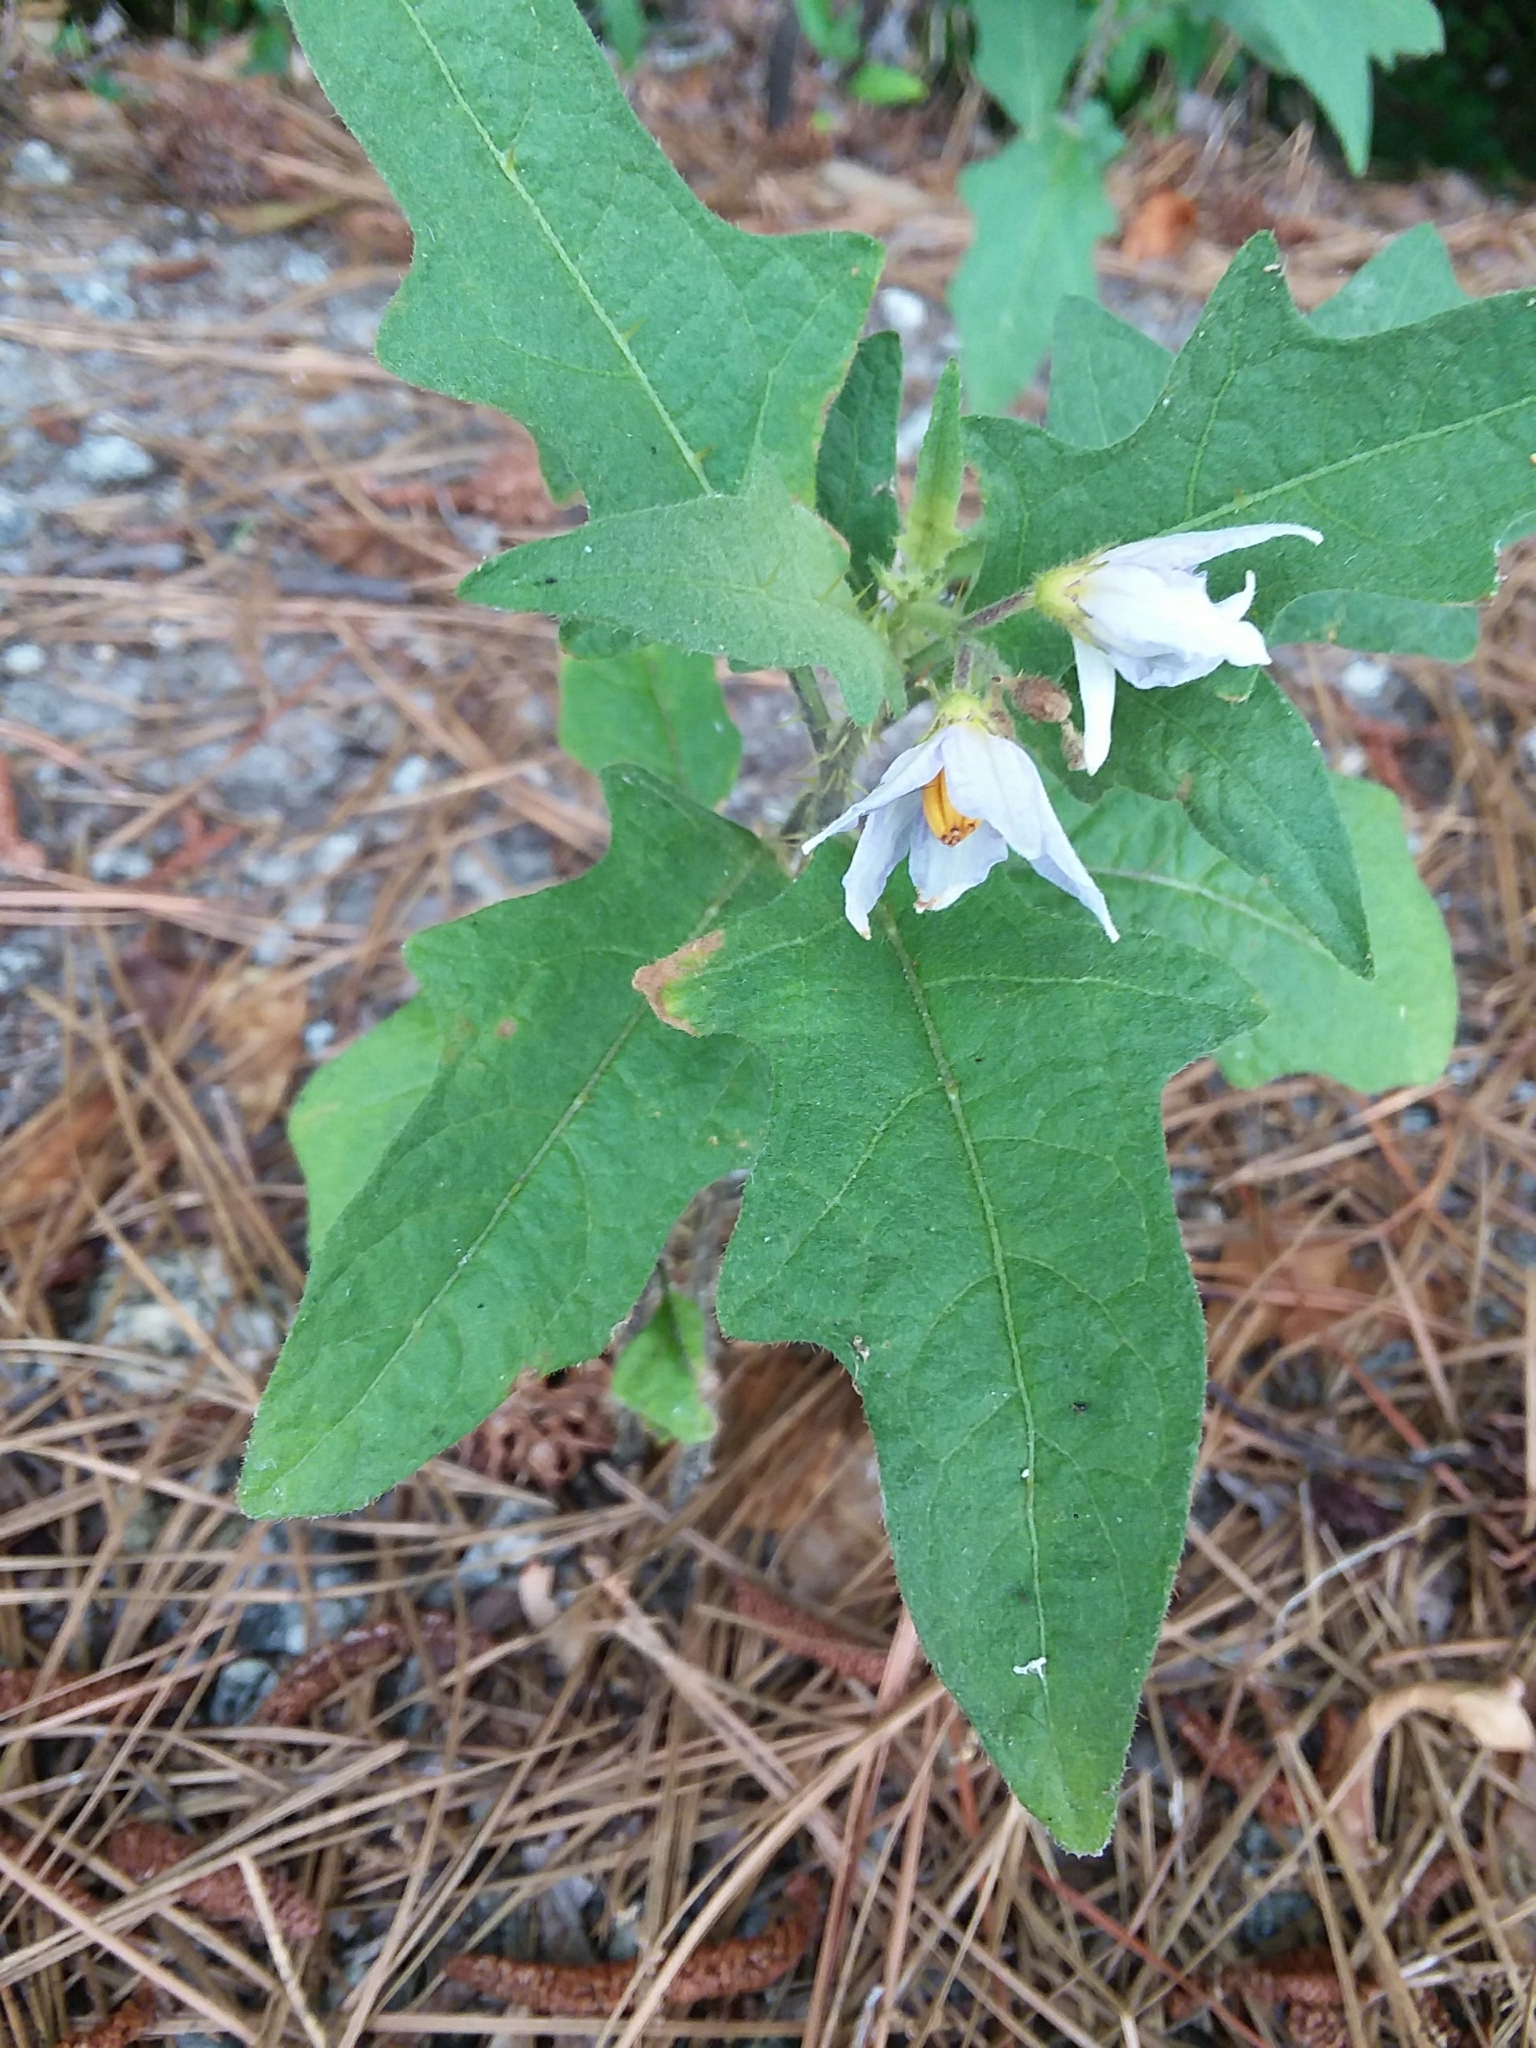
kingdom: Plantae
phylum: Tracheophyta
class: Magnoliopsida
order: Solanales
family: Solanaceae
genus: Solanum
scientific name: Solanum carolinense
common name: Horse-nettle
